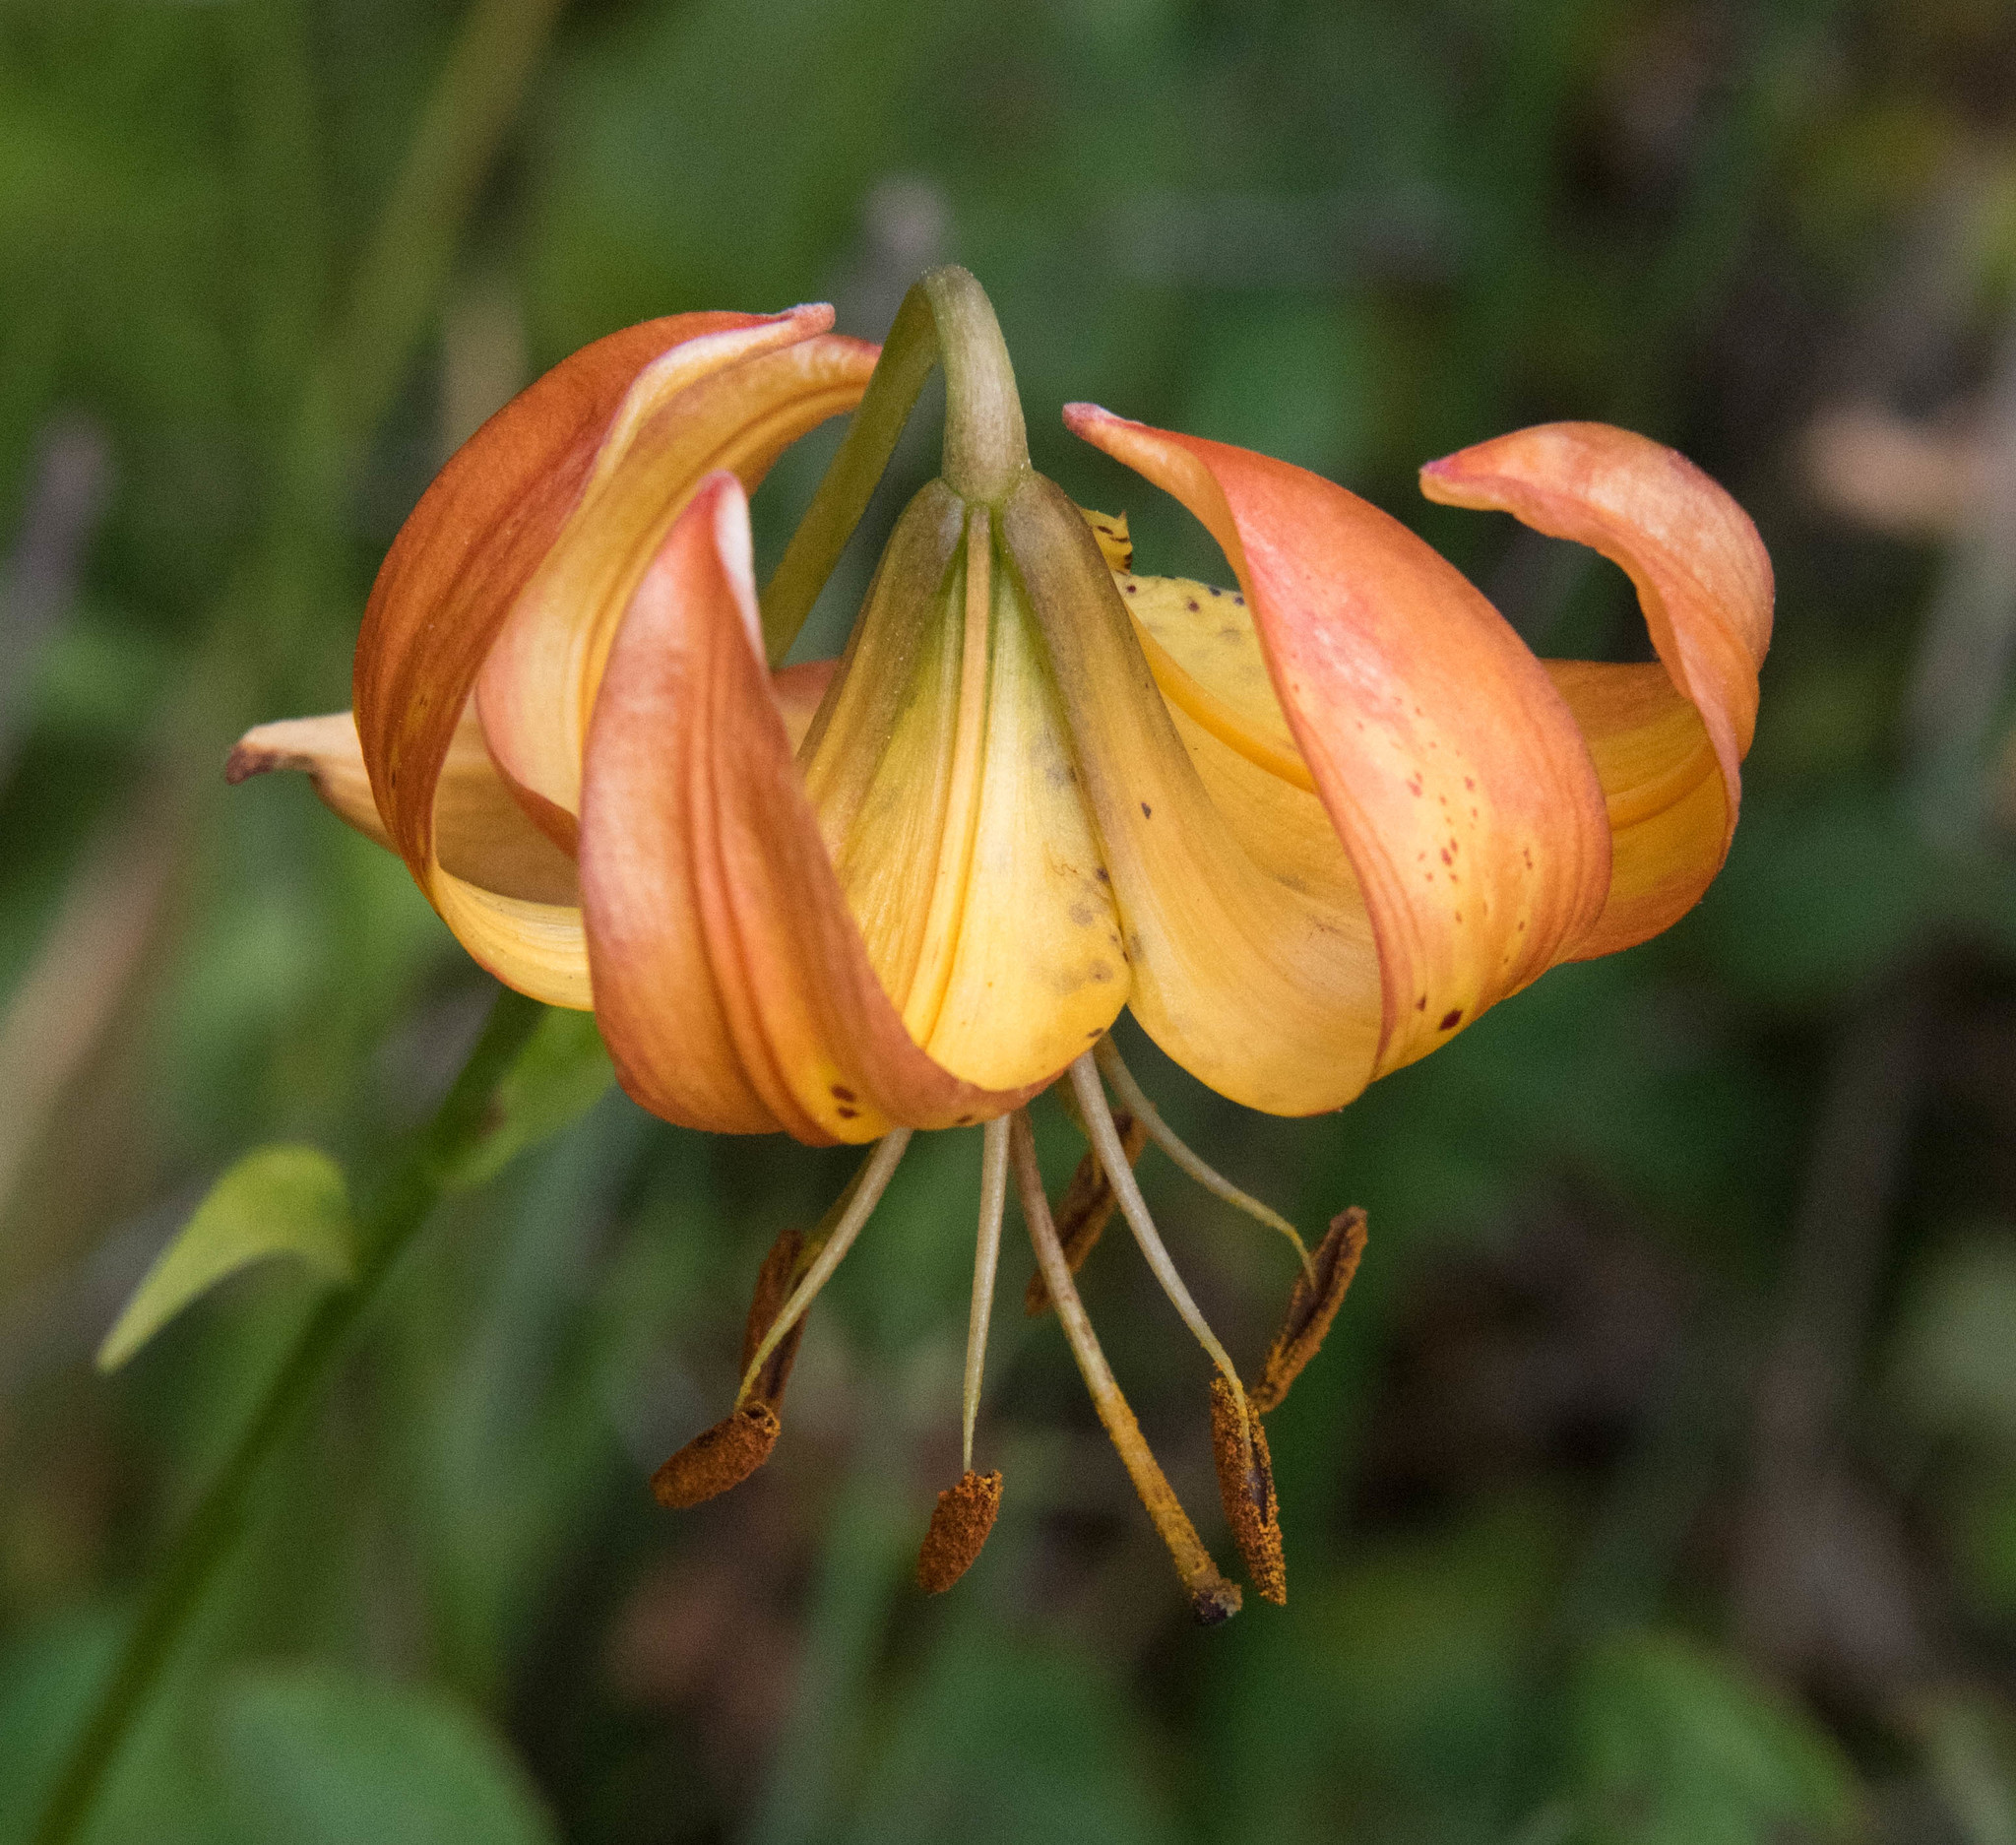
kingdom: Plantae
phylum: Tracheophyta
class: Liliopsida
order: Liliales
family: Liliaceae
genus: Lilium
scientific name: Lilium pardalinum
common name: Panther lily
